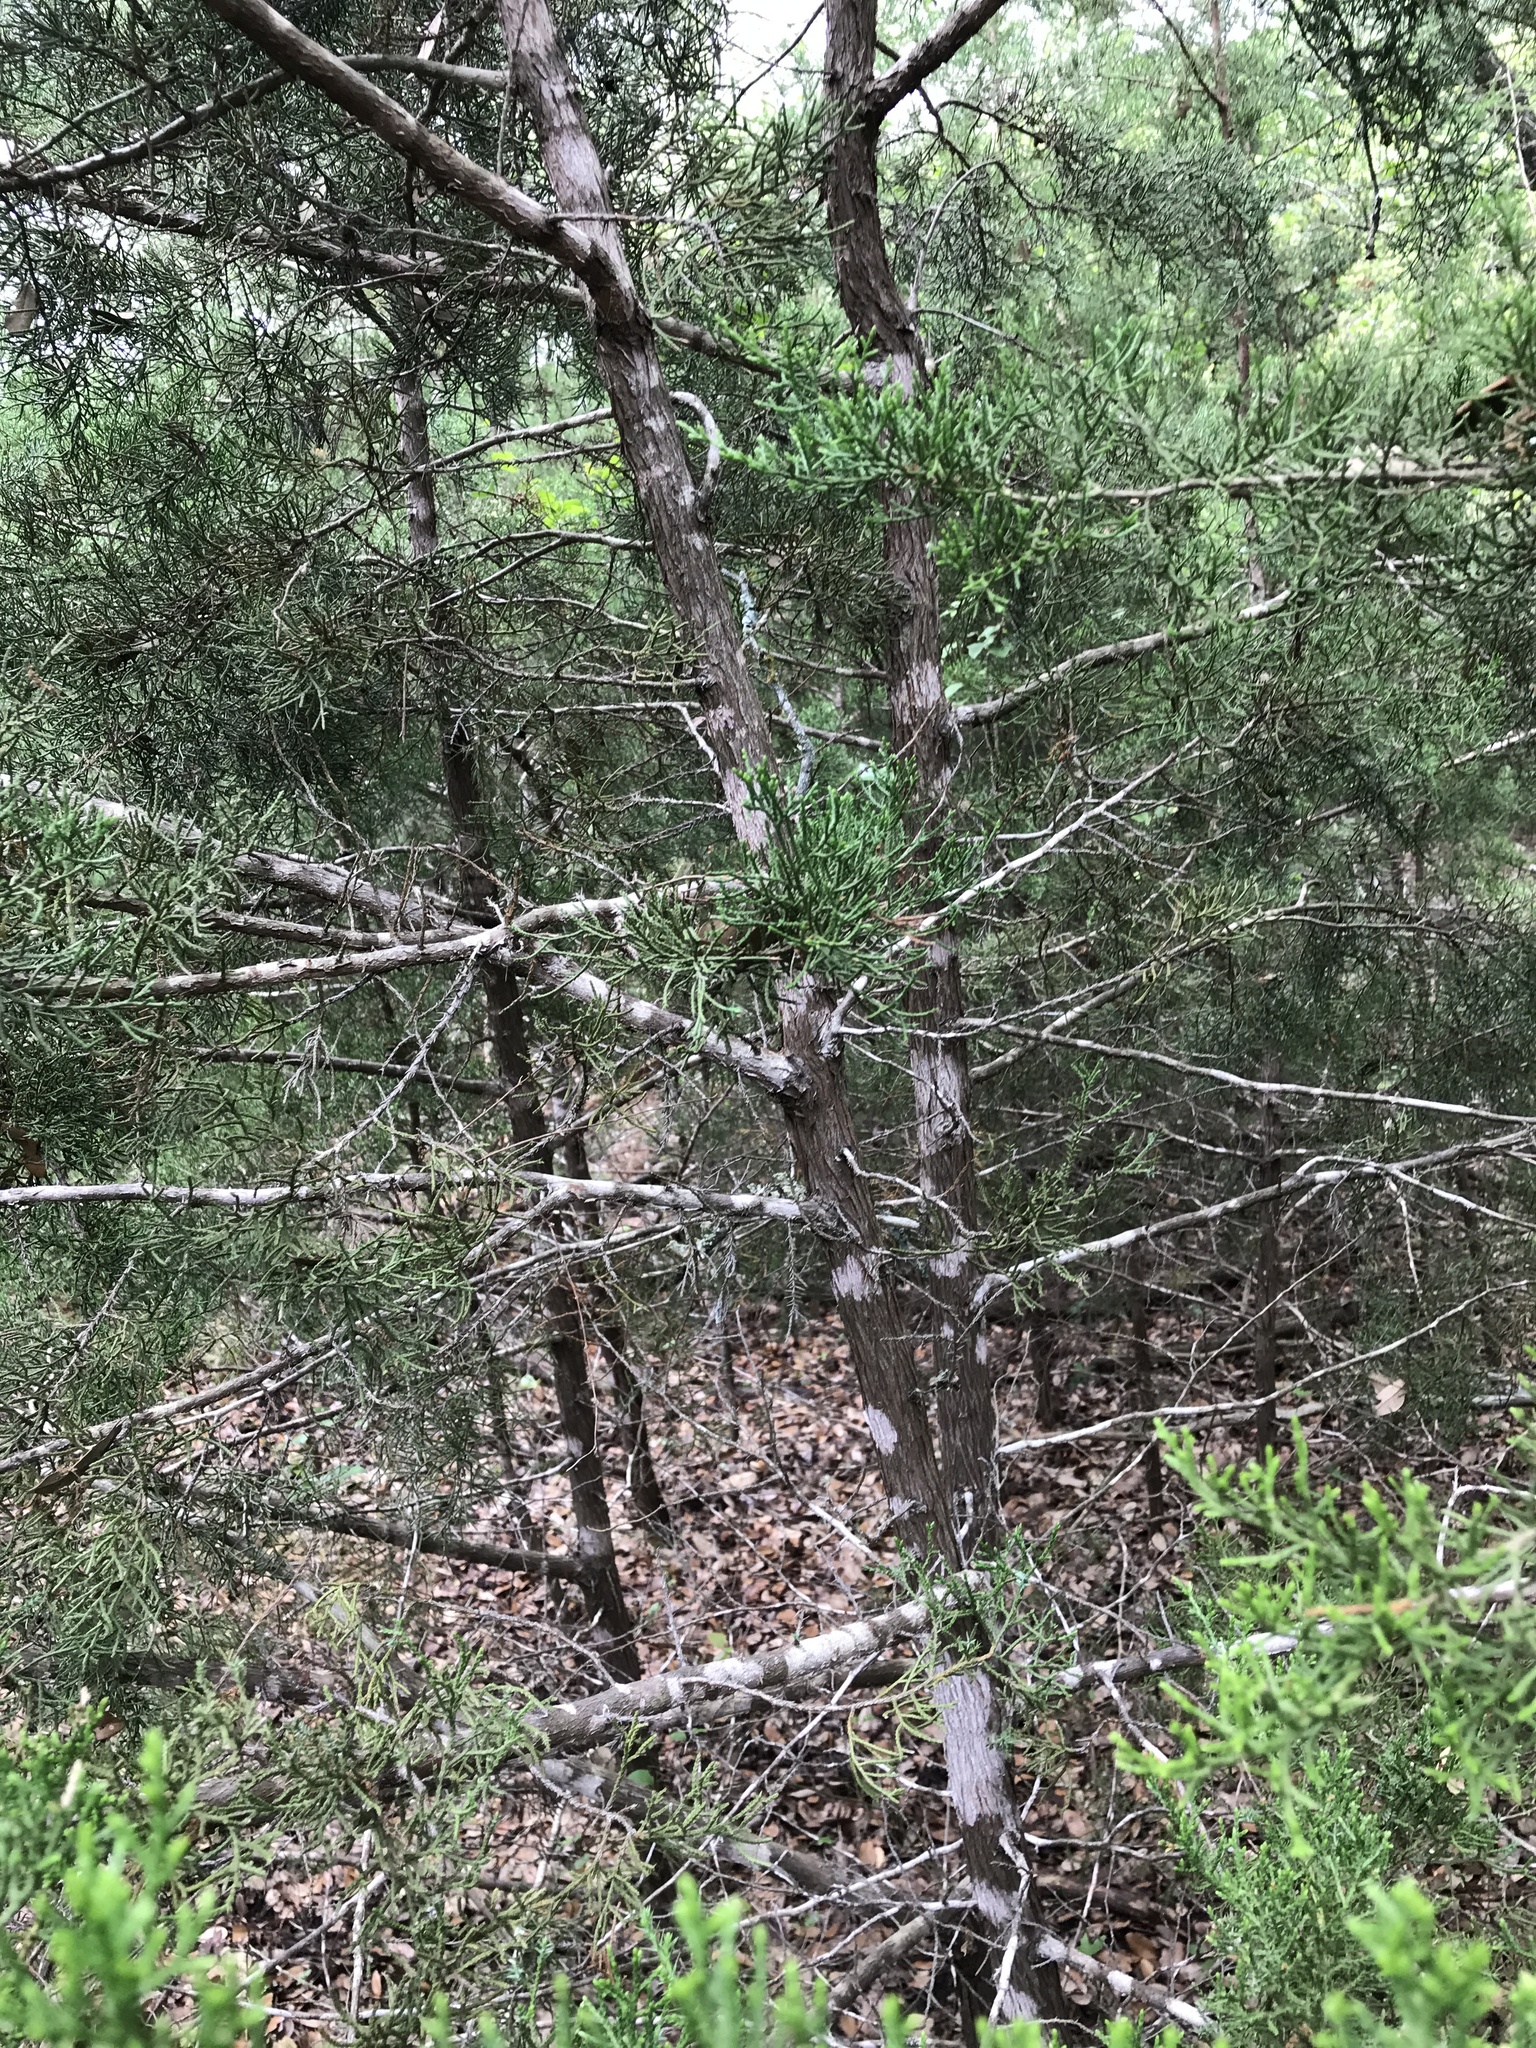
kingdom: Plantae
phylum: Tracheophyta
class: Pinopsida
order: Pinales
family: Cupressaceae
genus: Juniperus
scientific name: Juniperus ashei
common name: Mexican juniper
